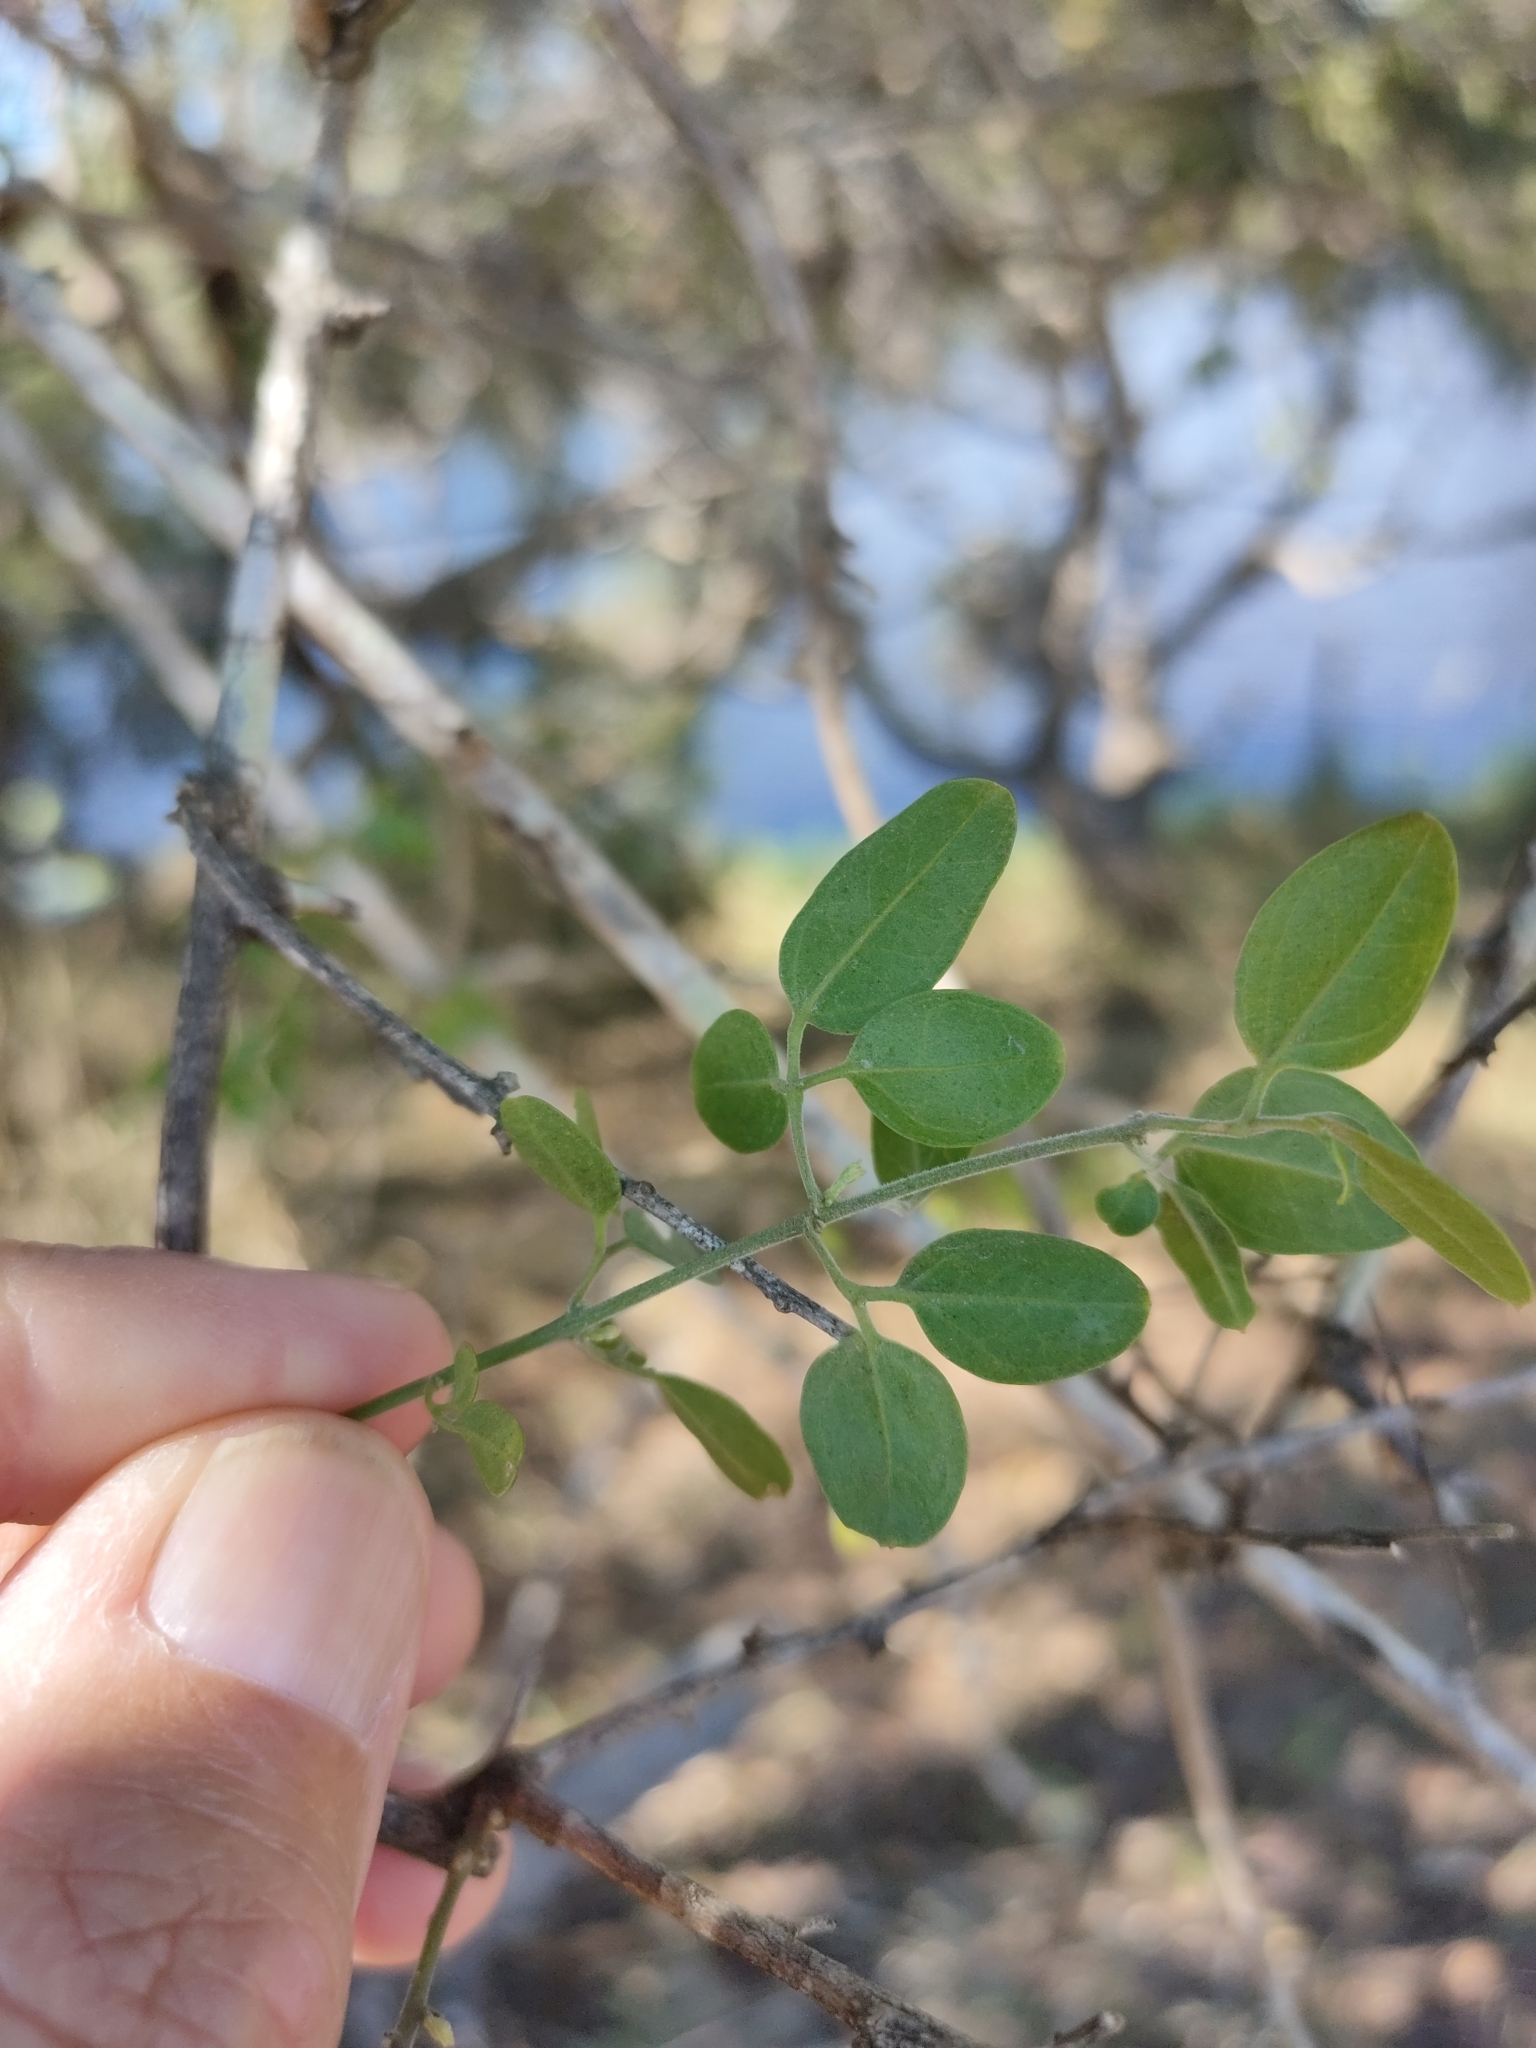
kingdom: Plantae
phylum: Tracheophyta
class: Magnoliopsida
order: Lamiales
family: Oleaceae
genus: Jasminum
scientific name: Jasminum didymum
